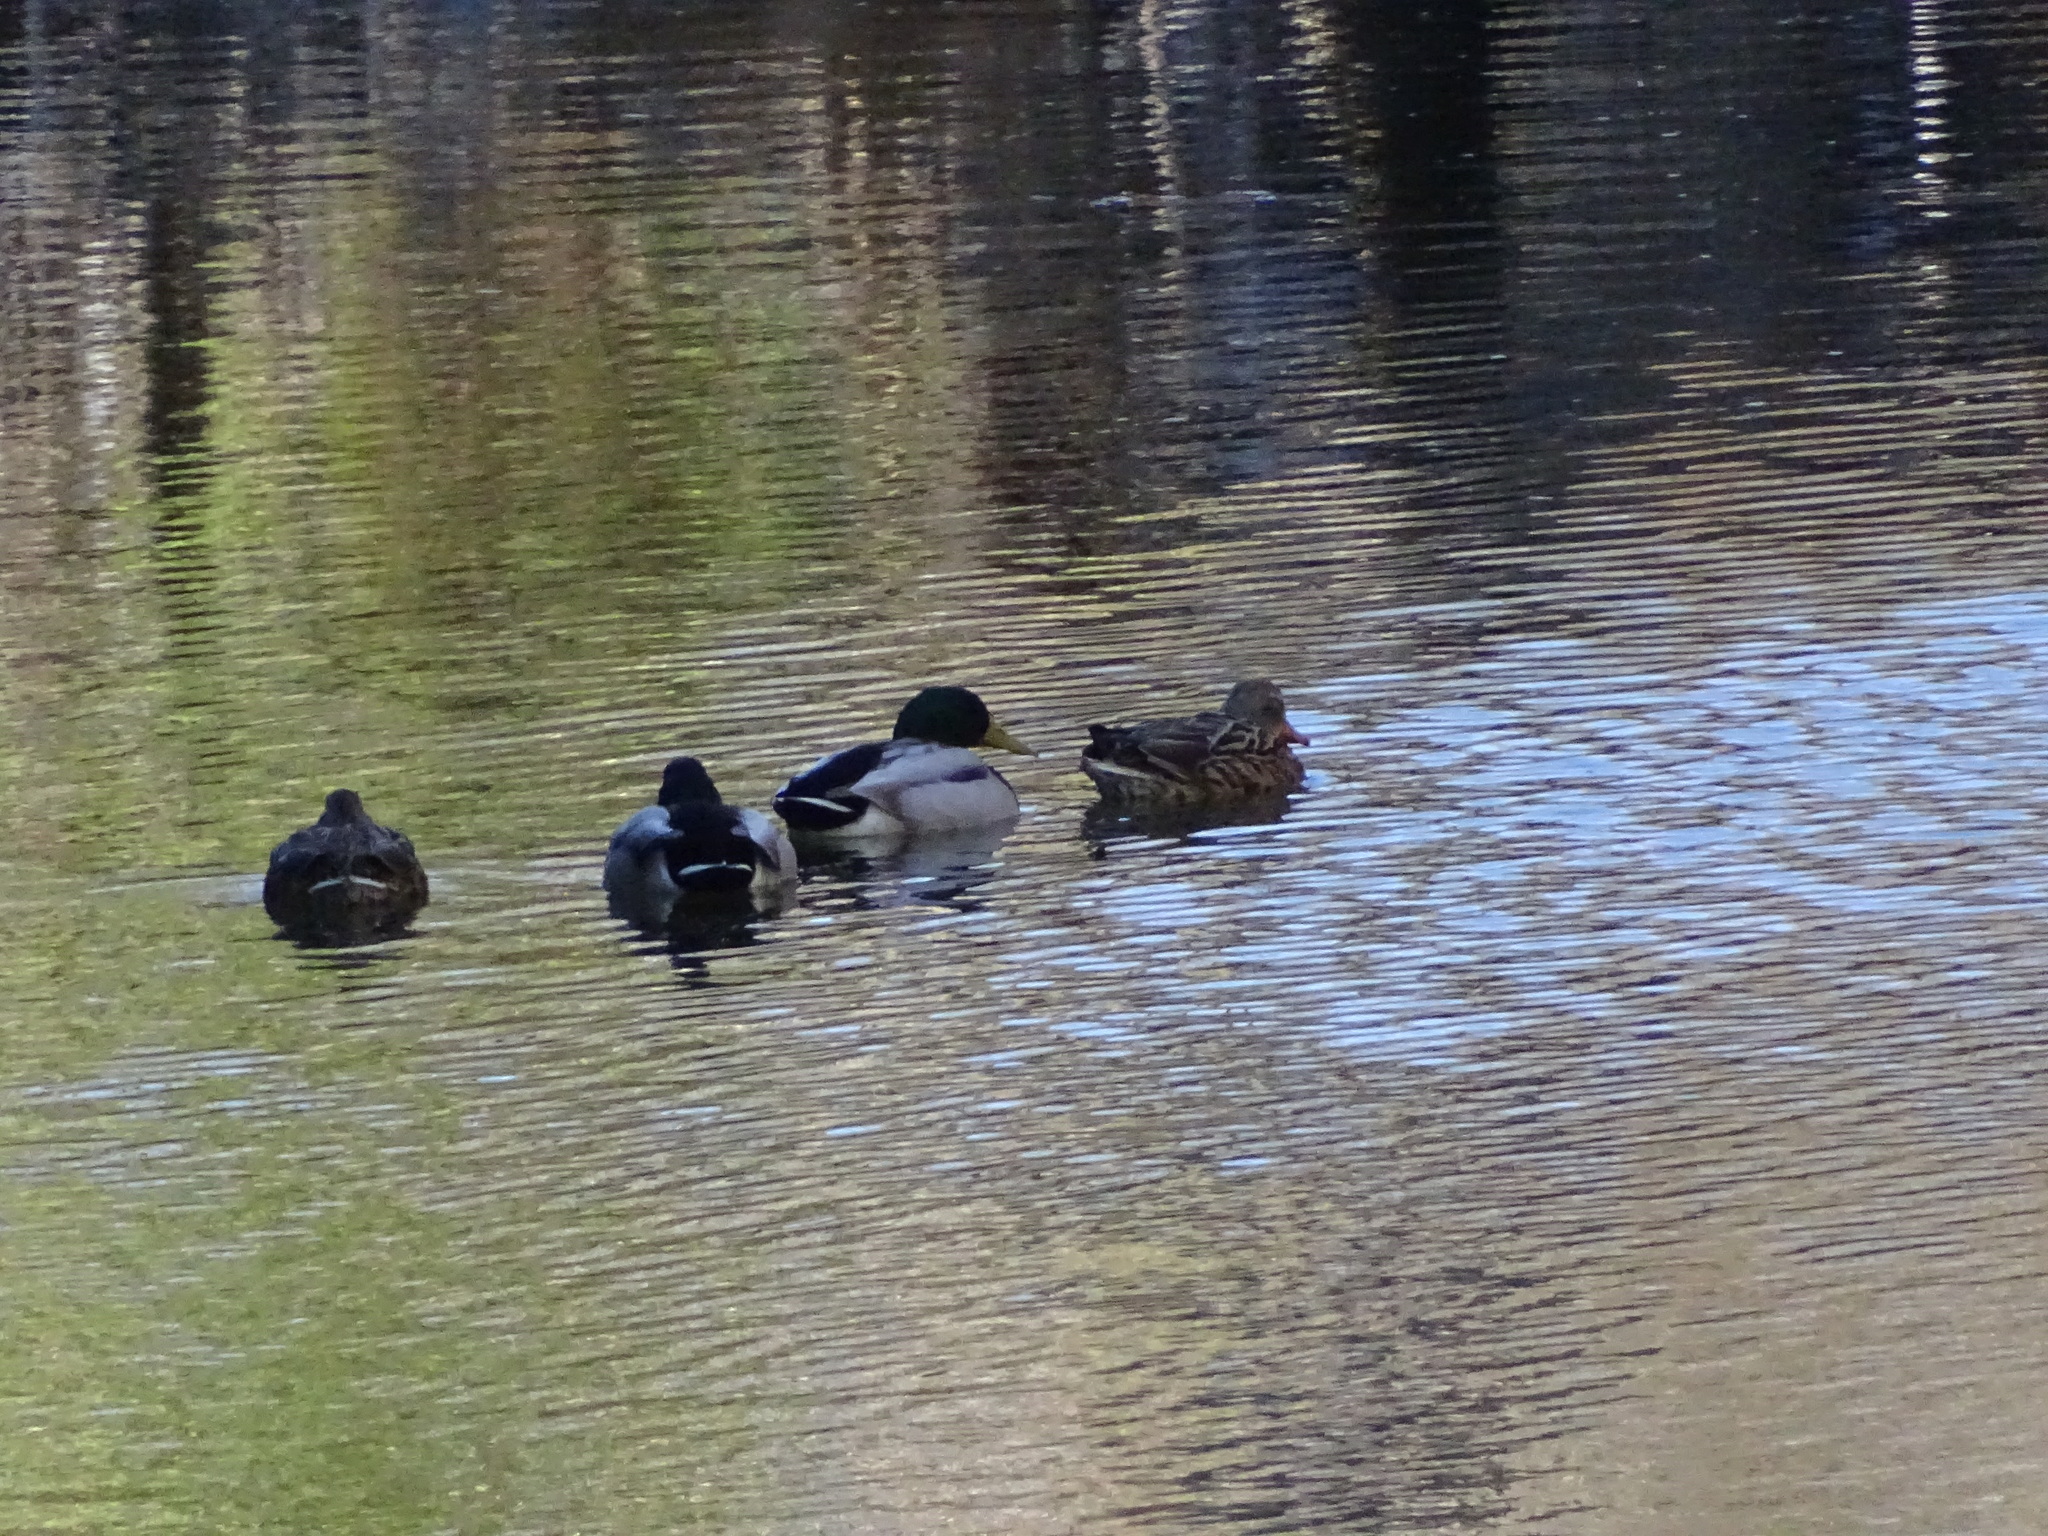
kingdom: Animalia
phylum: Chordata
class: Aves
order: Anseriformes
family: Anatidae
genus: Anas
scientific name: Anas platyrhynchos
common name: Mallard
